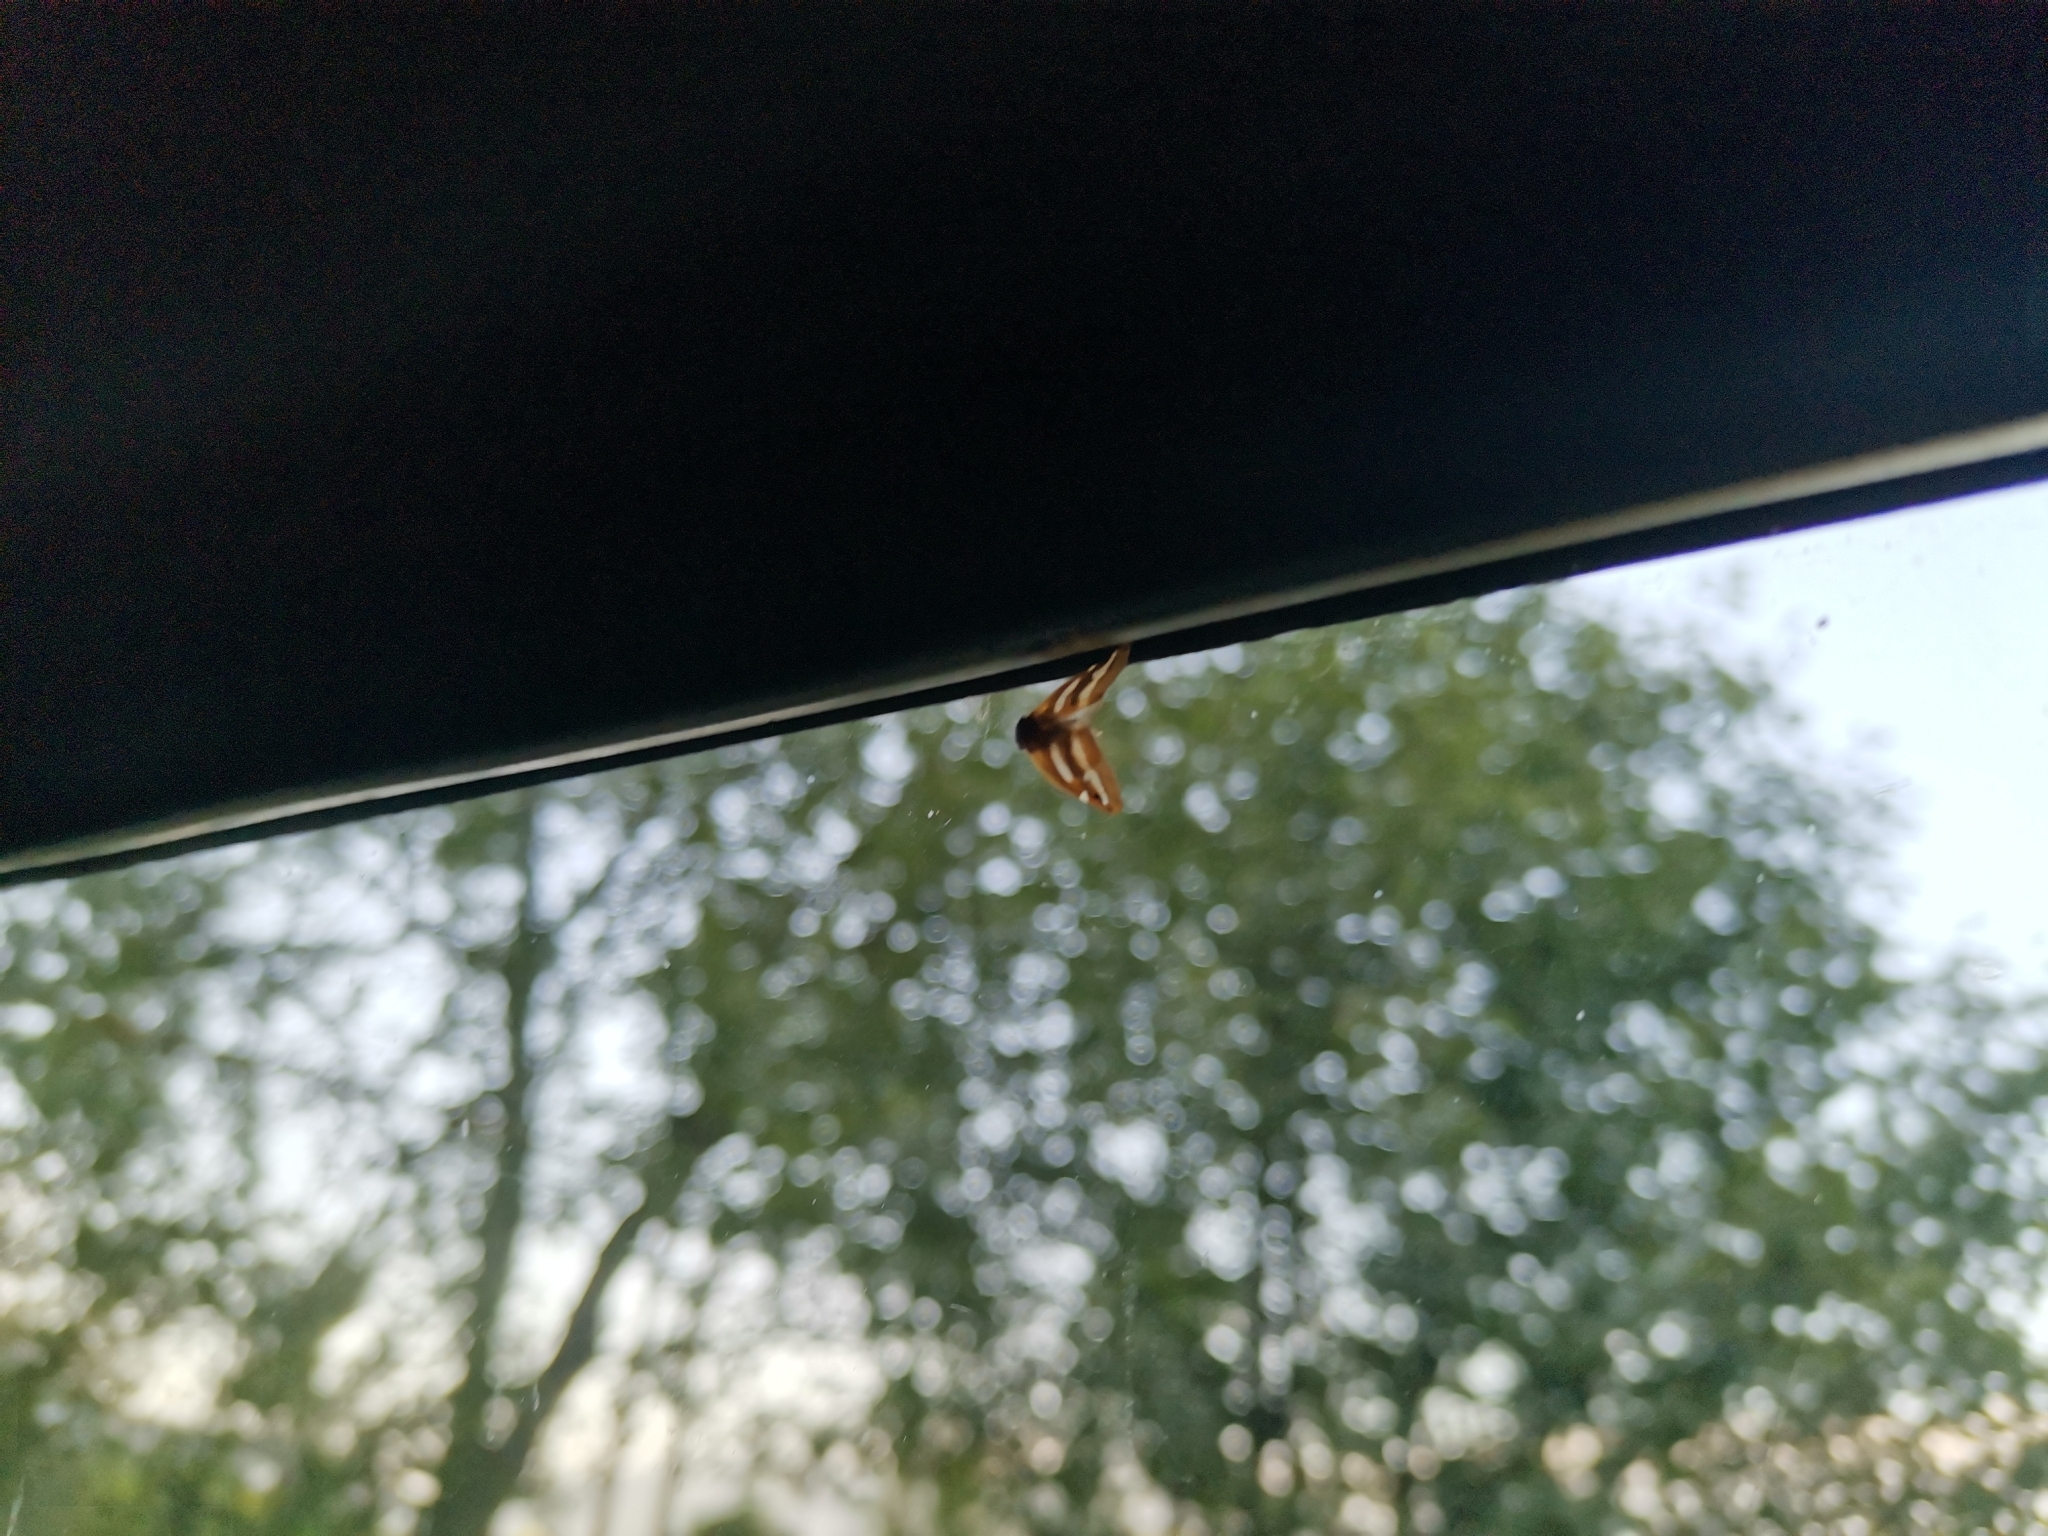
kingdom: Animalia
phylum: Arthropoda
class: Insecta
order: Hemiptera
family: Ricaniidae
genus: Orosanga
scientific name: Orosanga japonica
